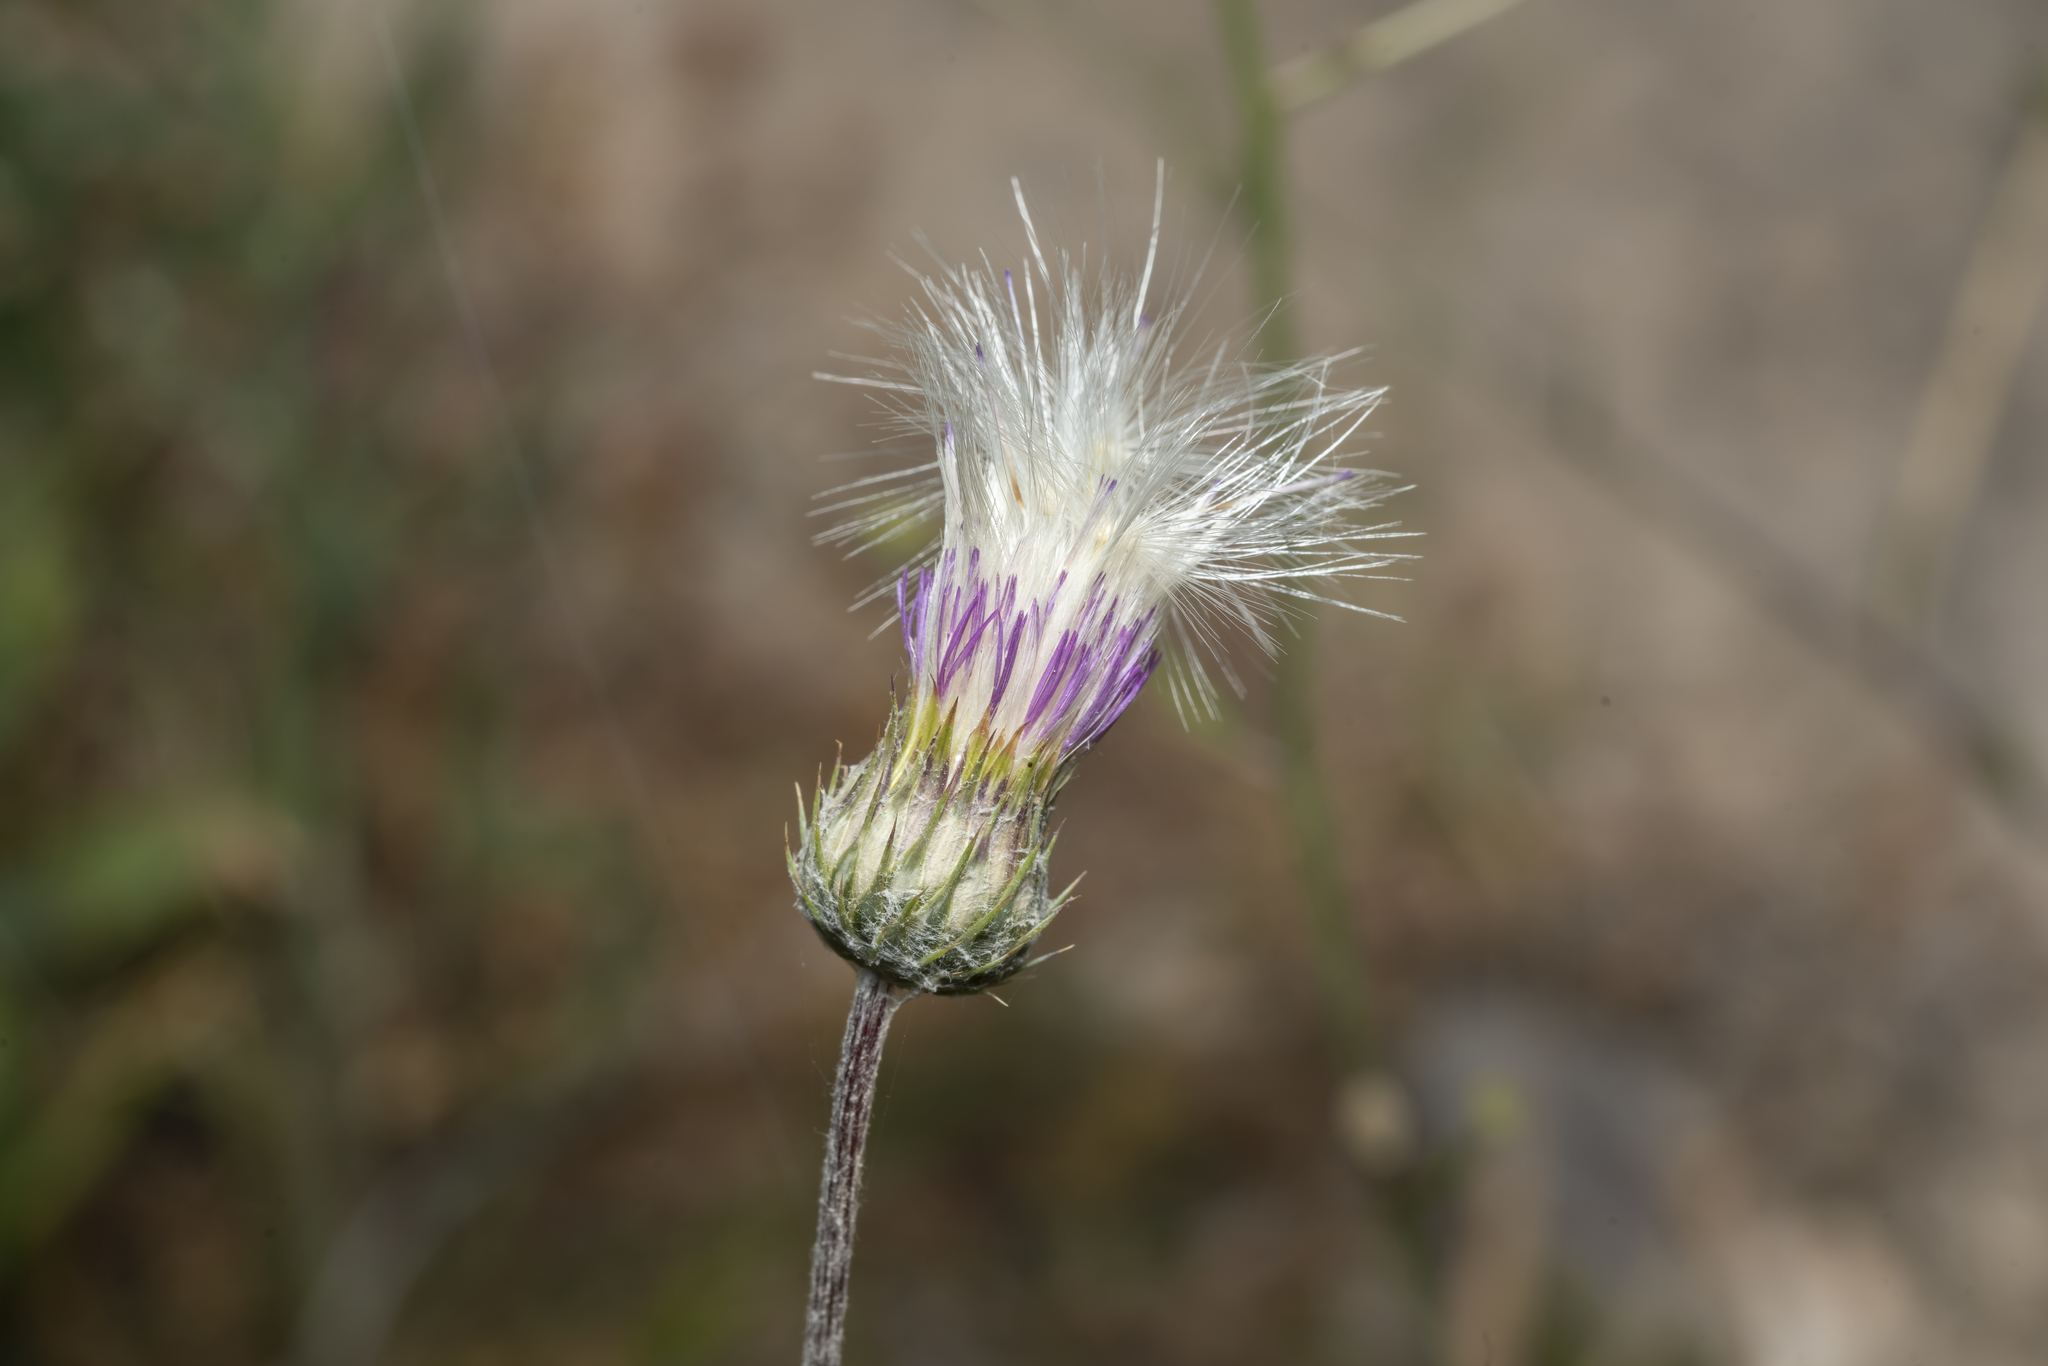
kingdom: Plantae
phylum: Tracheophyta
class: Magnoliopsida
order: Asterales
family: Asteraceae
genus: Tyrimnus
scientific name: Tyrimnus leucographus
